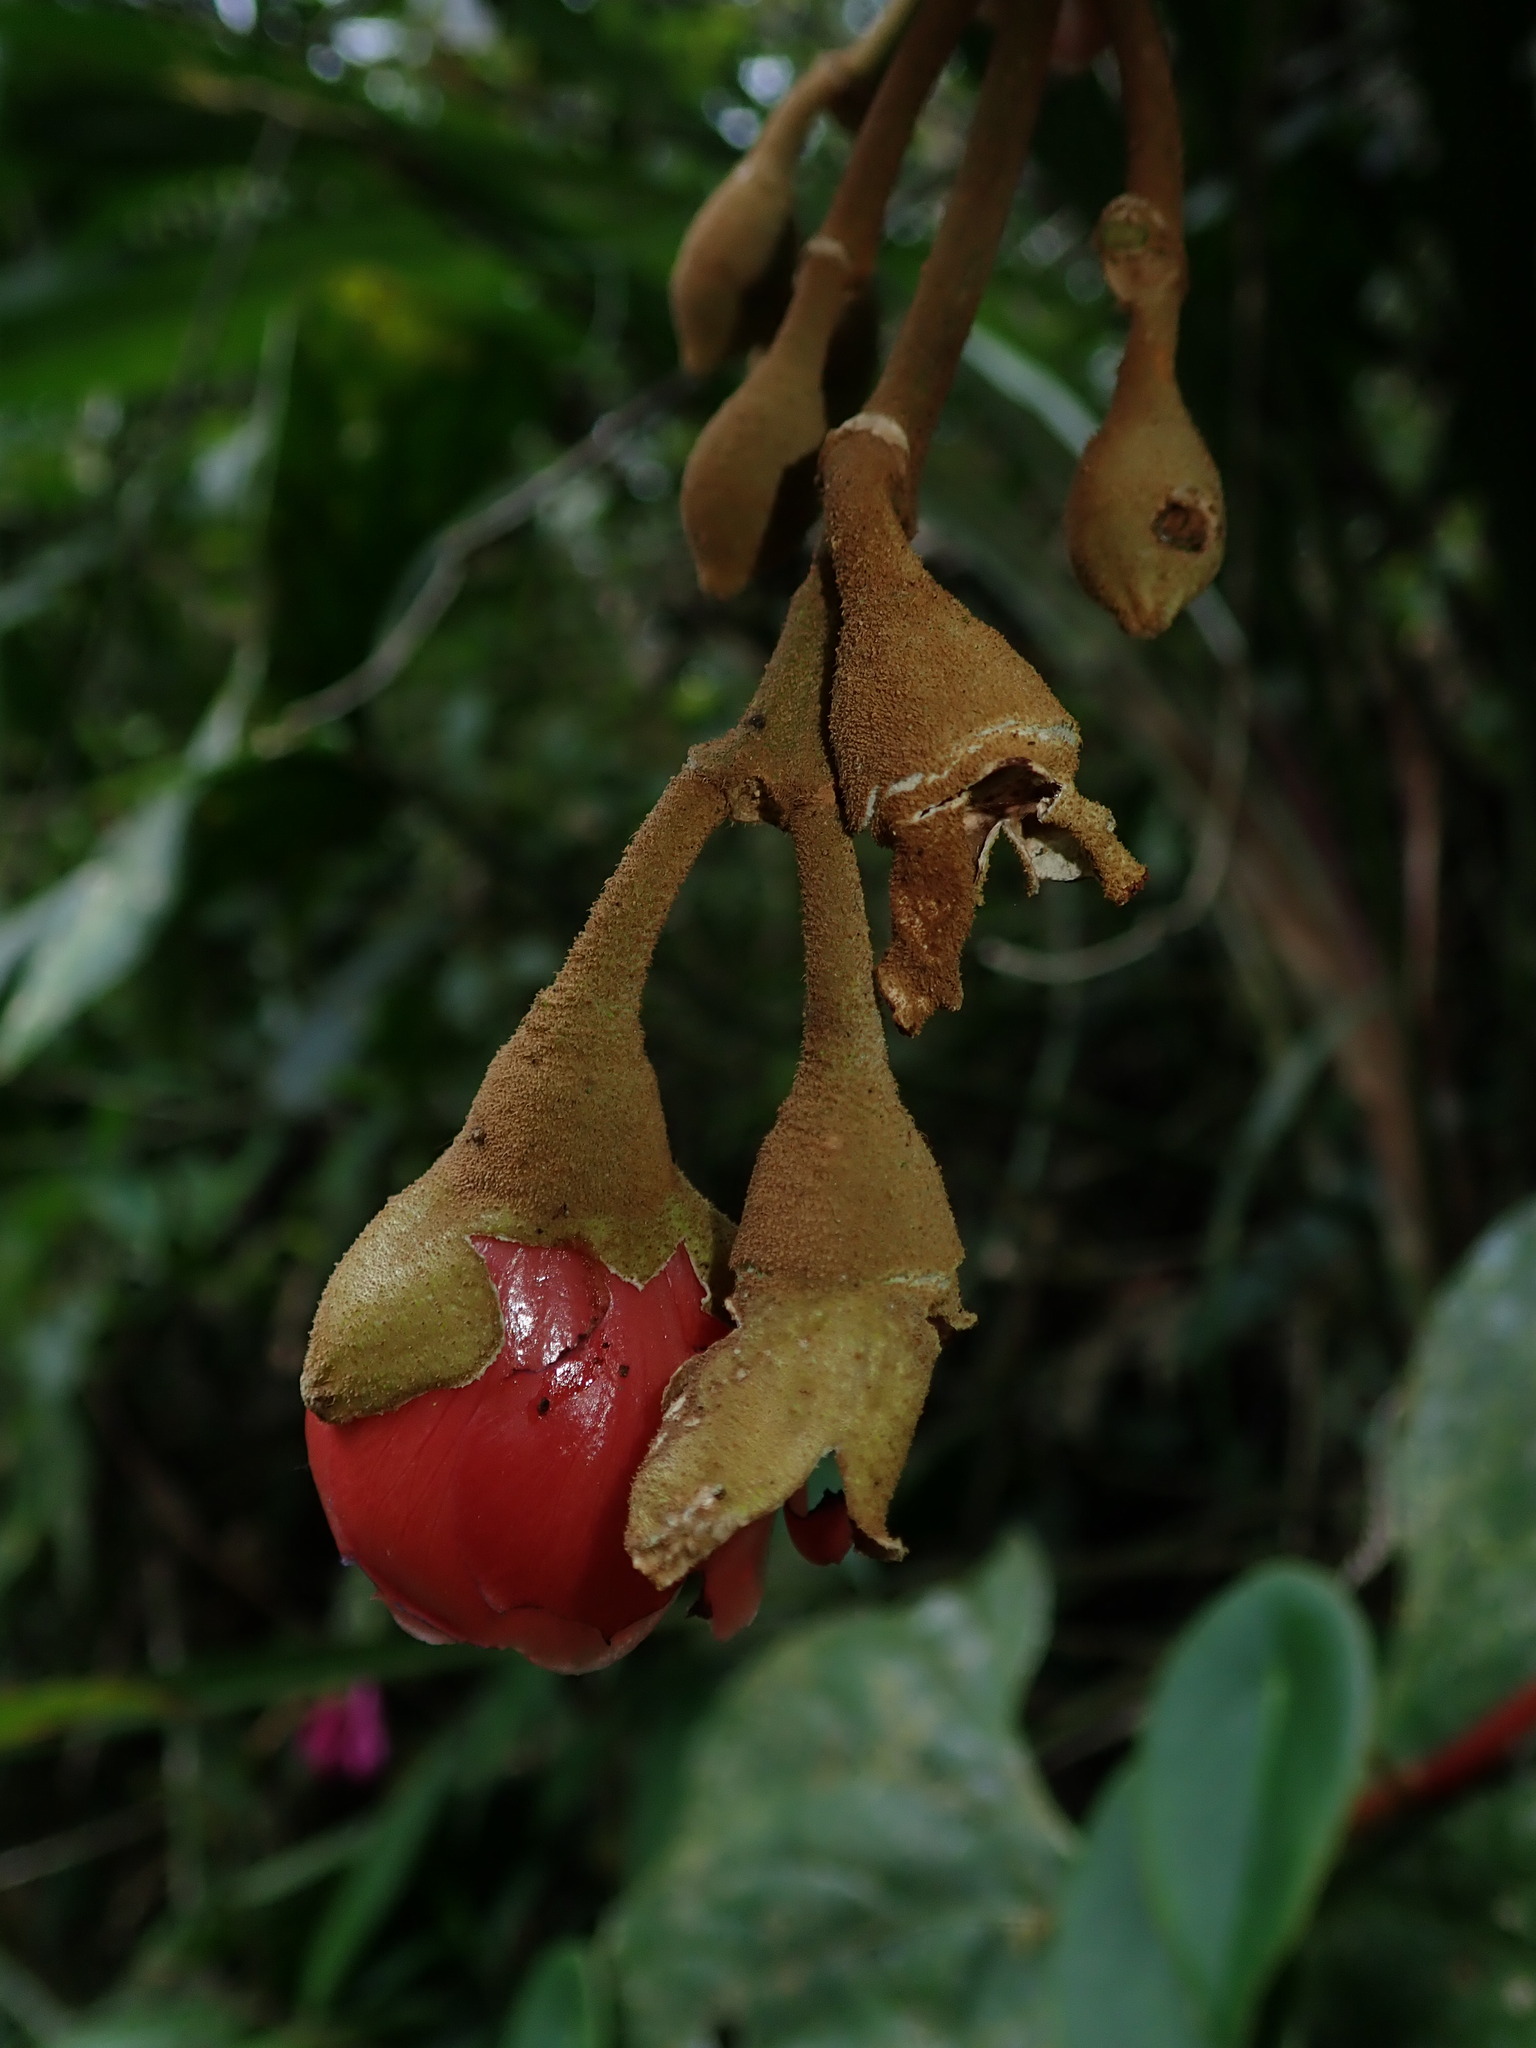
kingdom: Plantae
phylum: Tracheophyta
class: Magnoliopsida
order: Myrtales
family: Melastomataceae
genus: Meriania
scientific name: Meriania tomentosa
